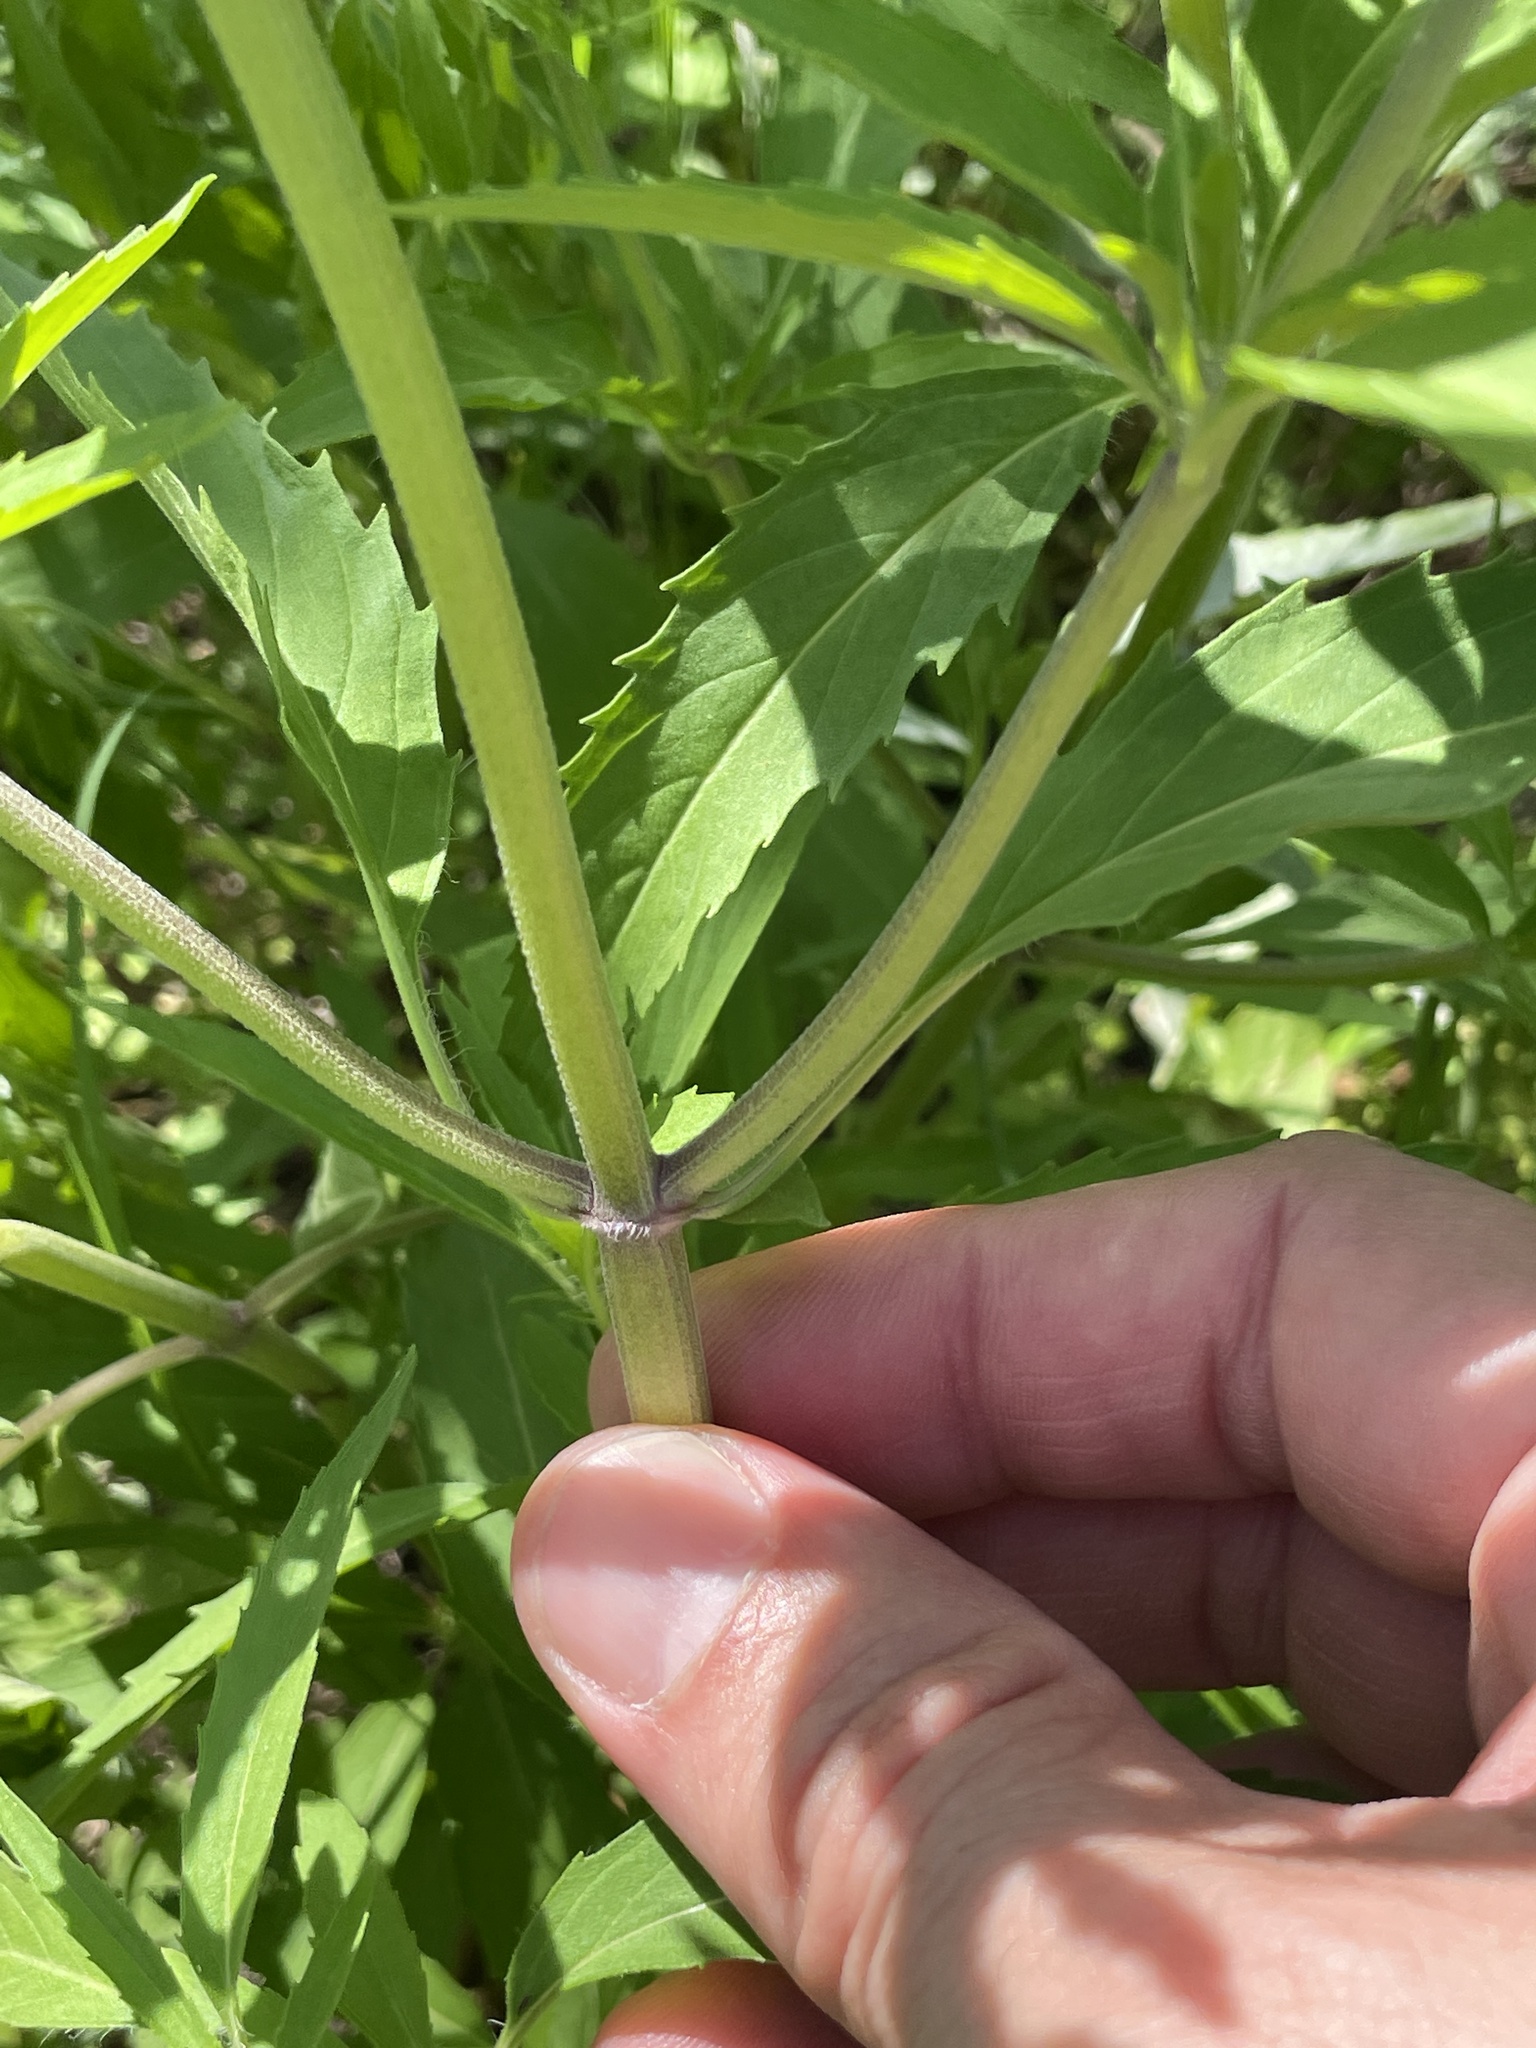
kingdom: Plantae
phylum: Tracheophyta
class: Magnoliopsida
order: Lamiales
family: Lamiaceae
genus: Monarda
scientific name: Monarda punctata
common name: Dotted monarda
